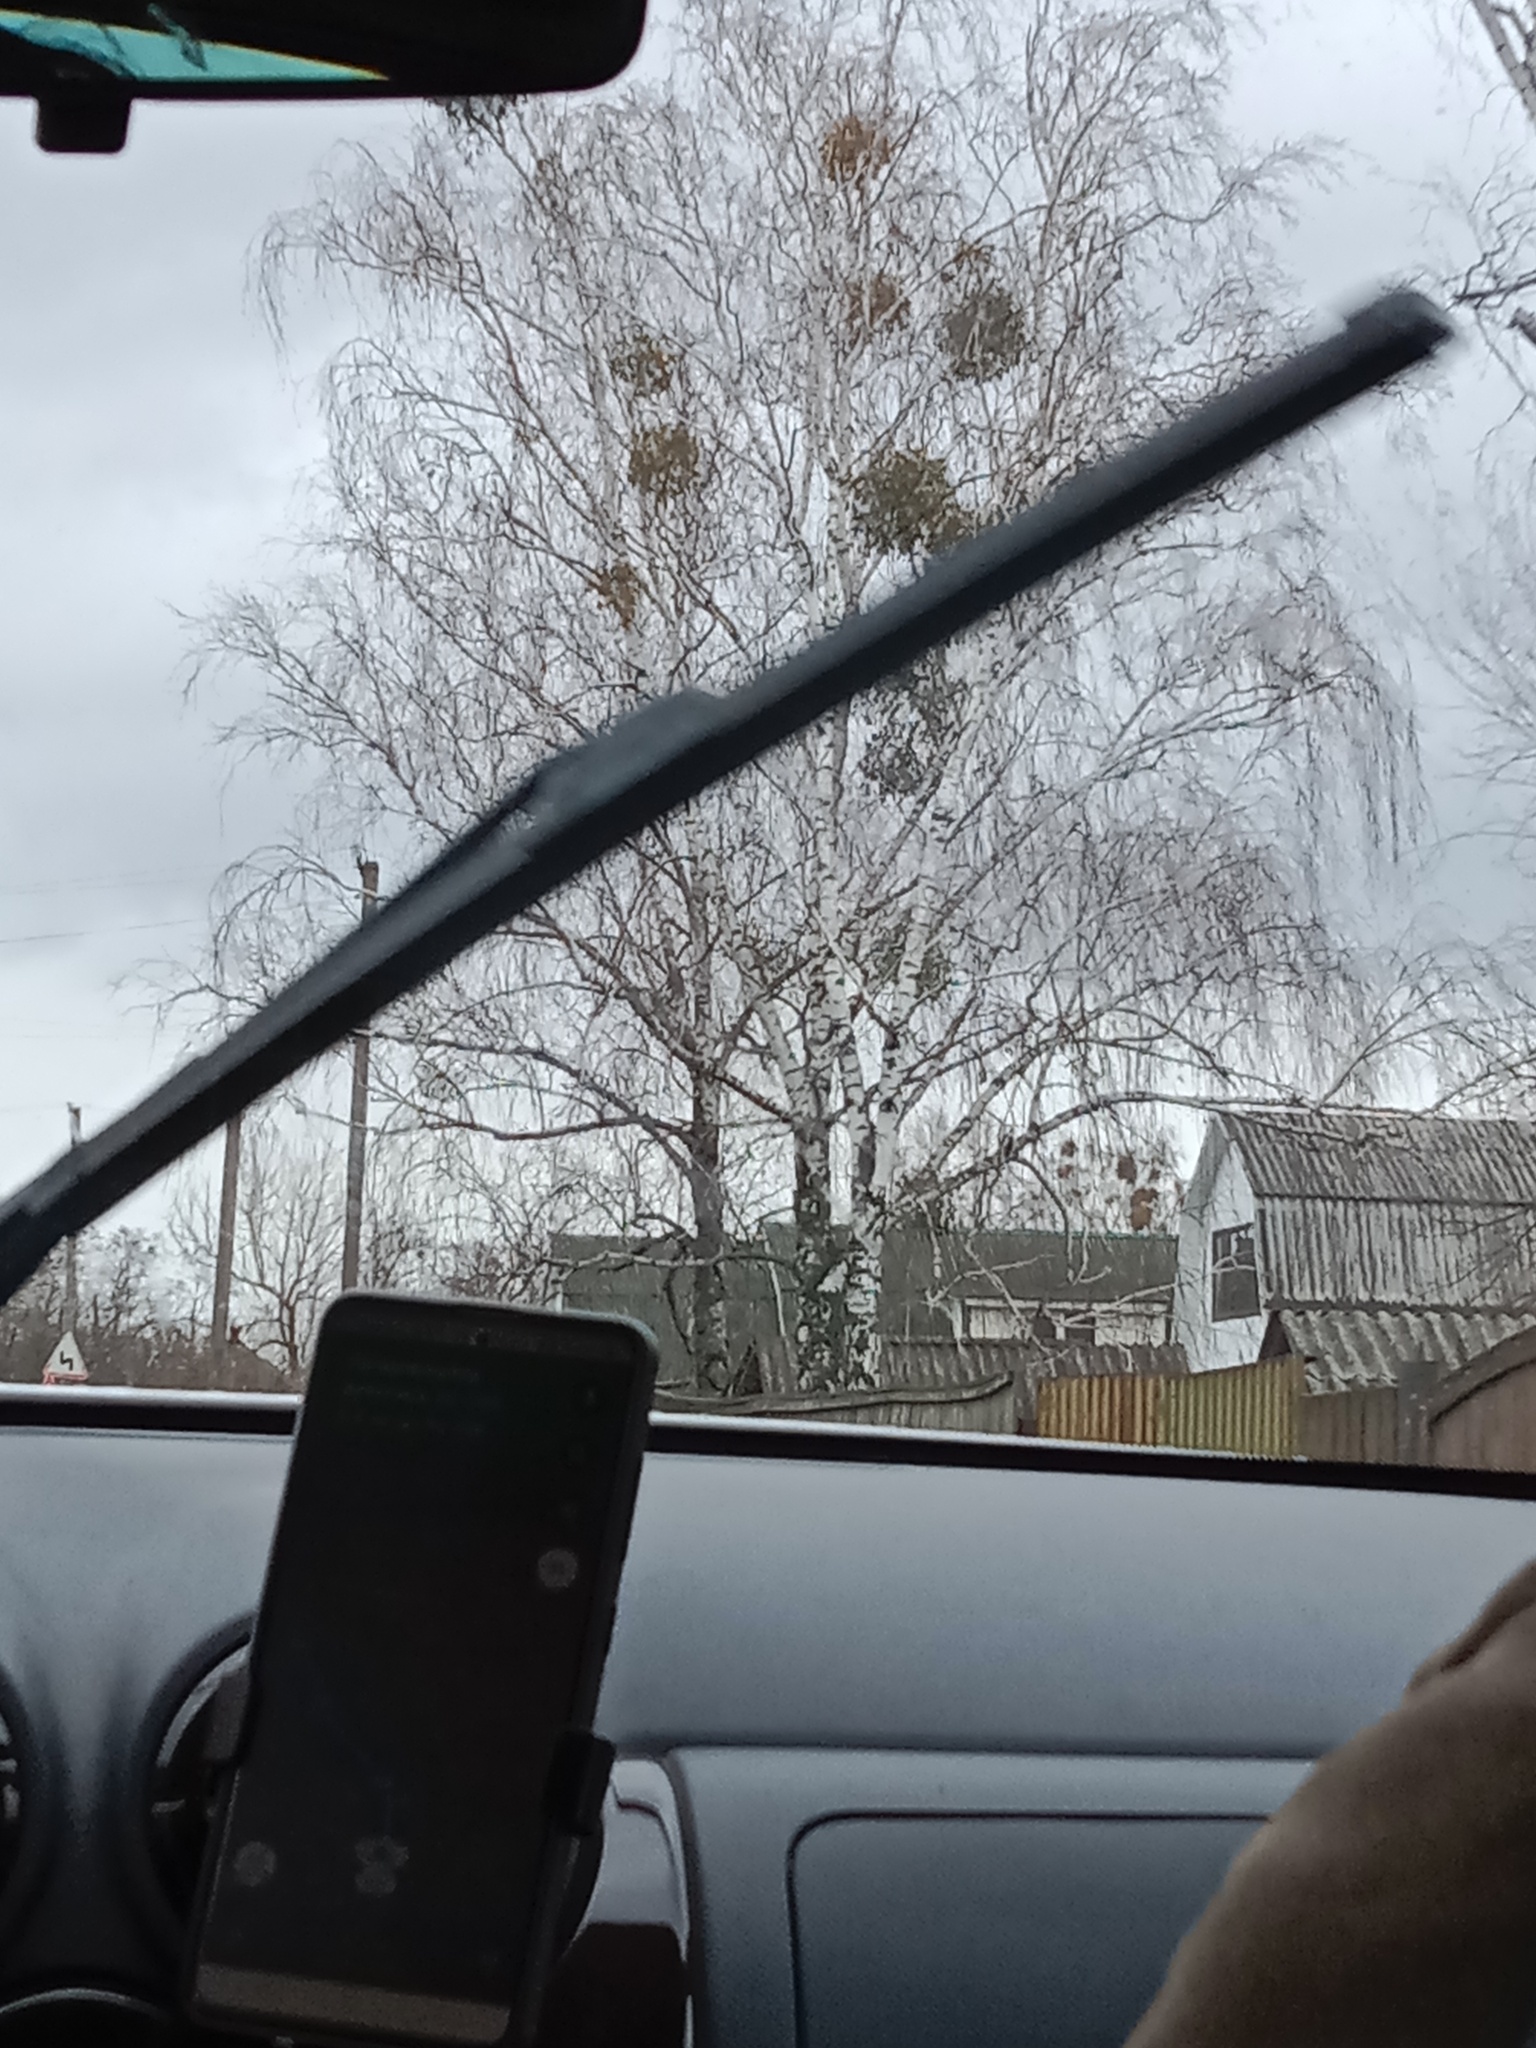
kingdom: Plantae
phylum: Tracheophyta
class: Magnoliopsida
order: Santalales
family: Viscaceae
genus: Viscum
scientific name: Viscum album
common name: Mistletoe
